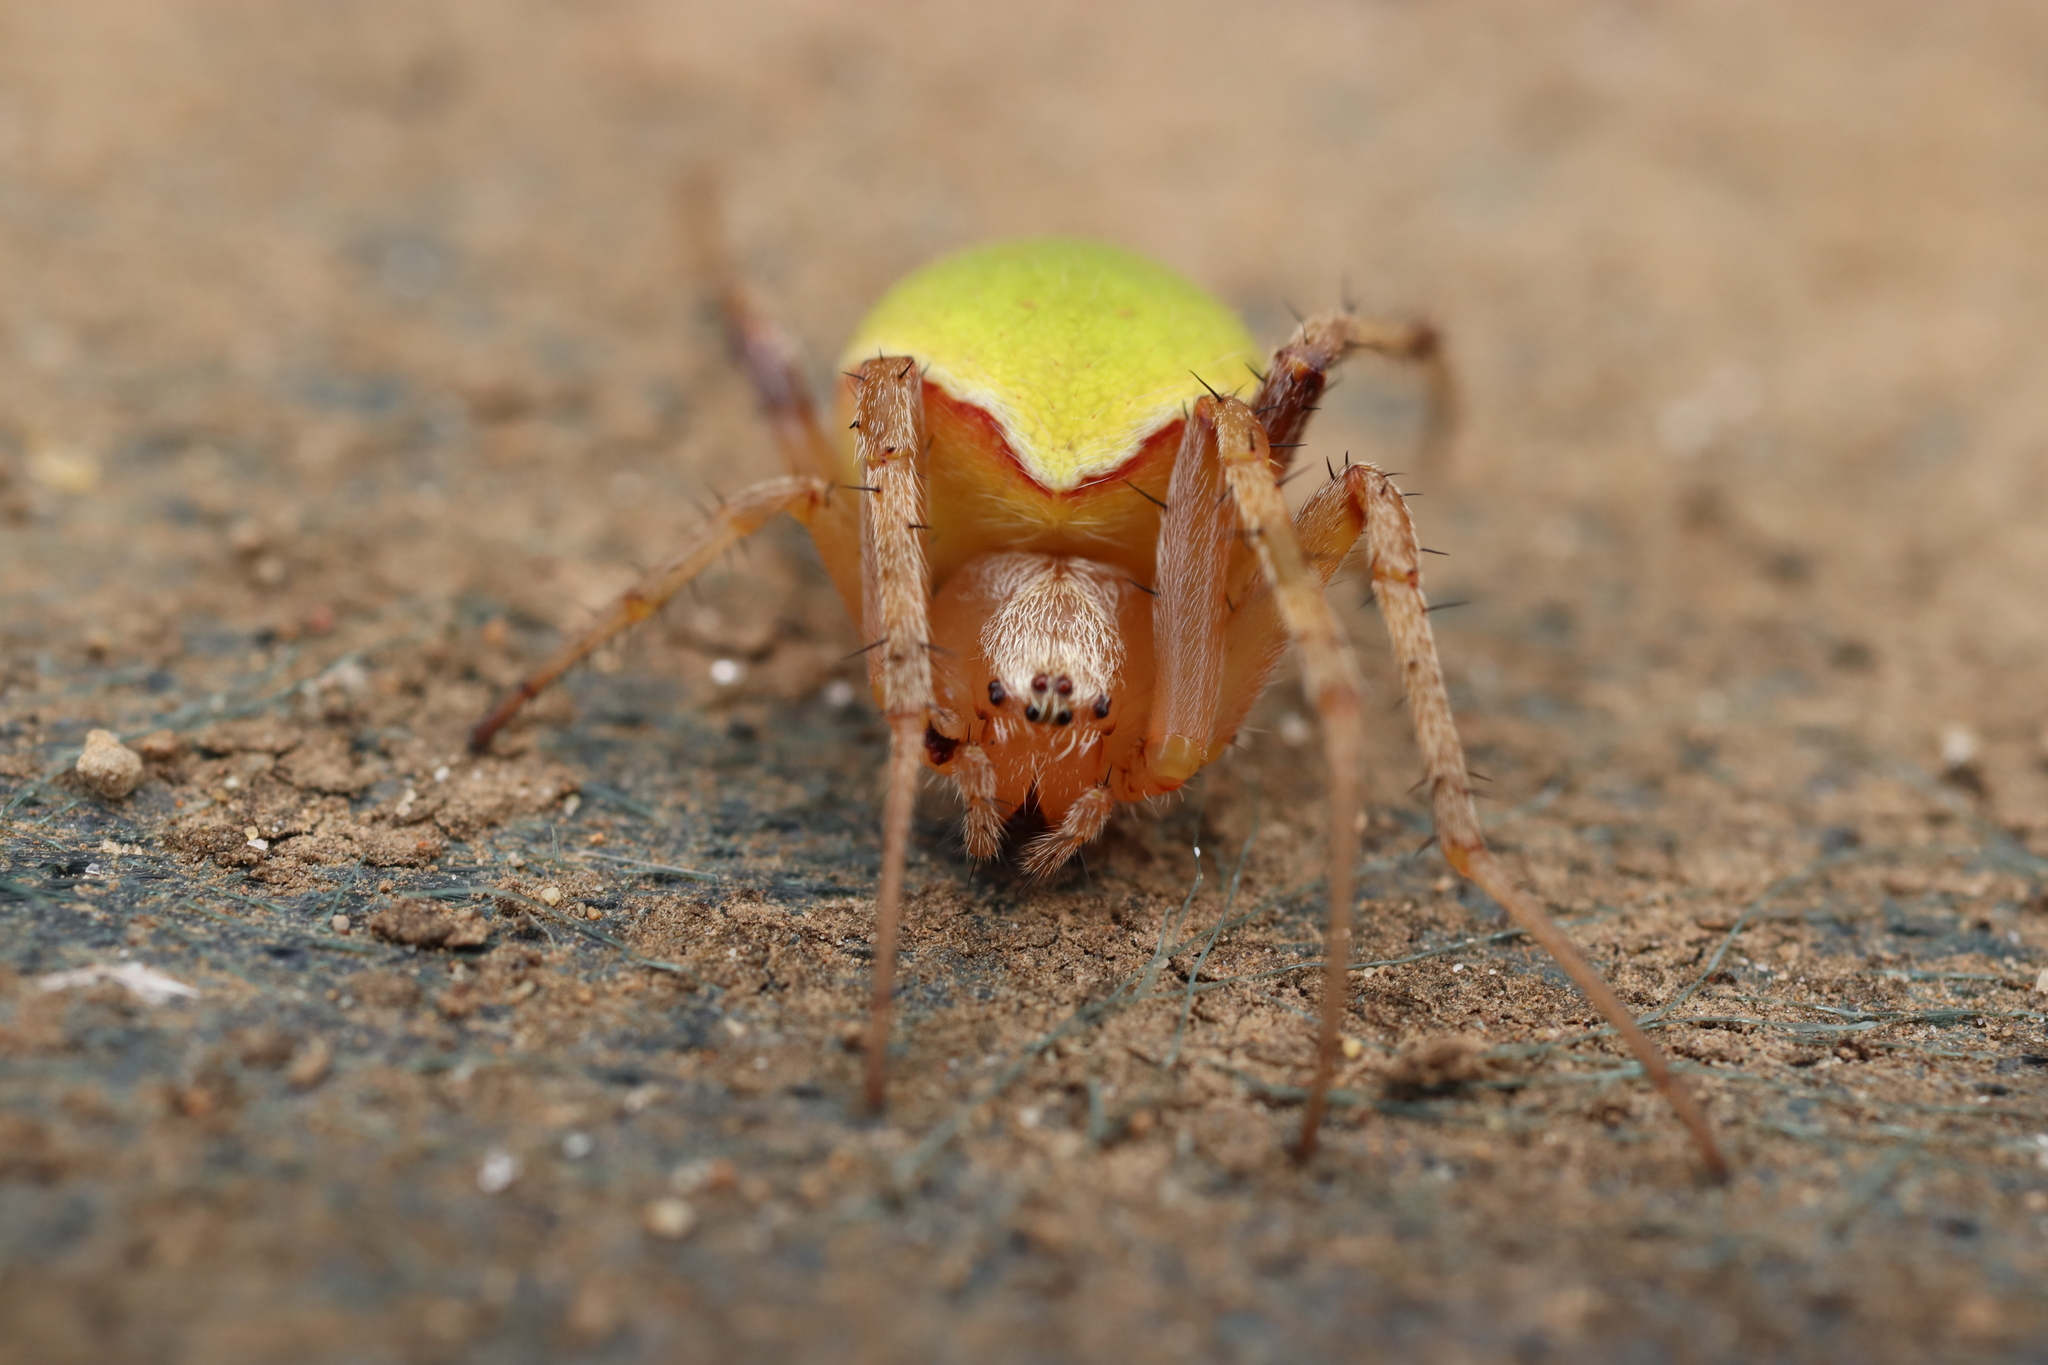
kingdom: Animalia
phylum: Arthropoda
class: Arachnida
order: Araneae
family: Araneidae
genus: Neoscona
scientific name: Neoscona mellotteei
